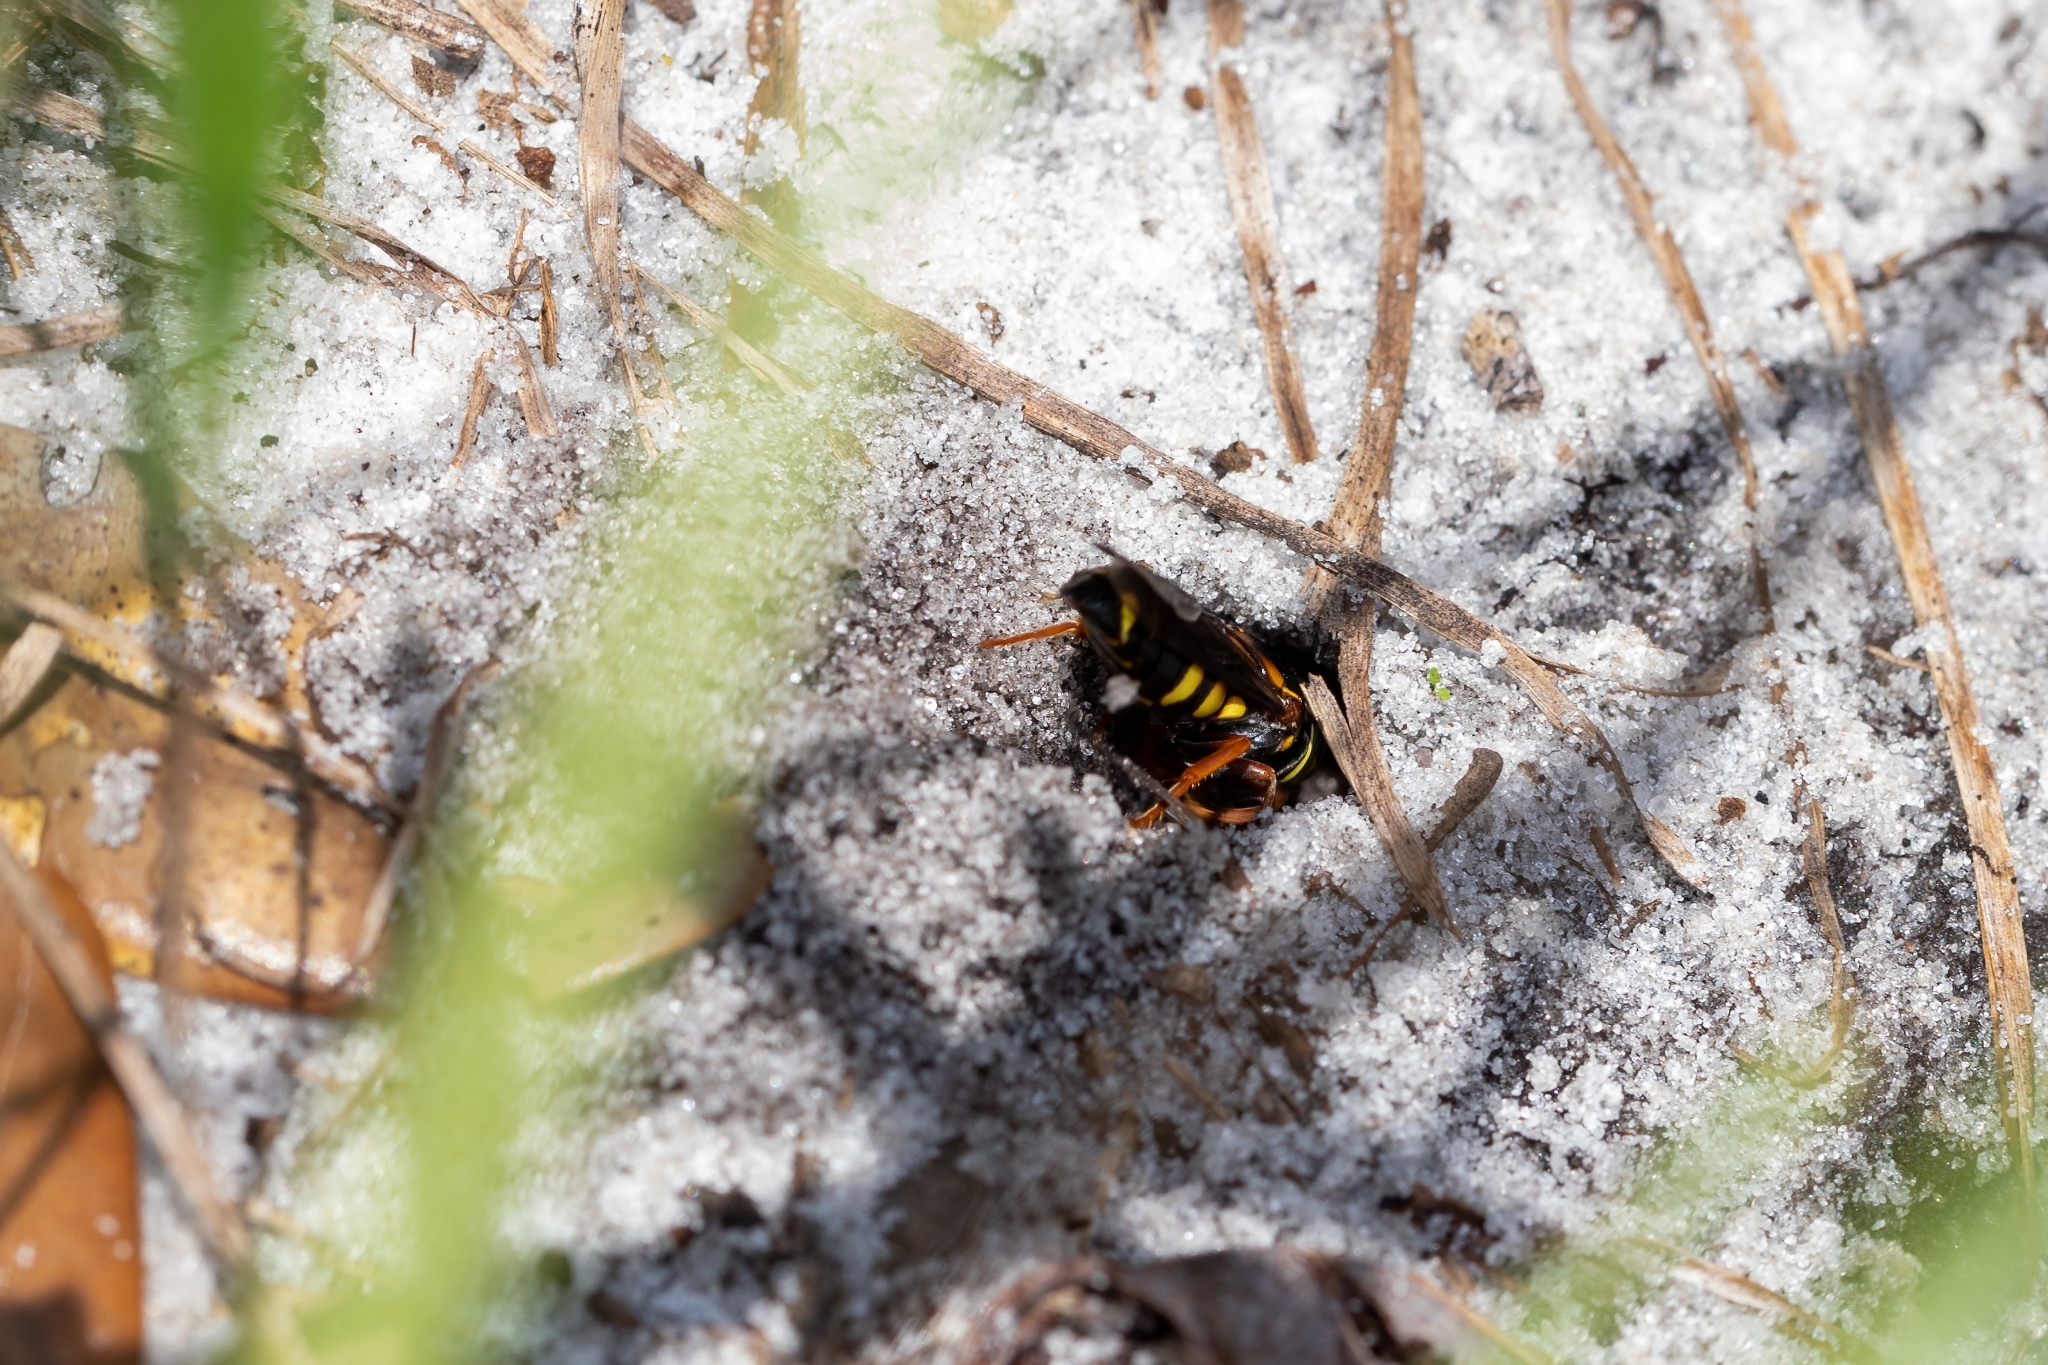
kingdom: Animalia
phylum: Arthropoda
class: Insecta
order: Hymenoptera
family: Crabronidae
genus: Bicyrtes
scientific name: Bicyrtes capnopterus
